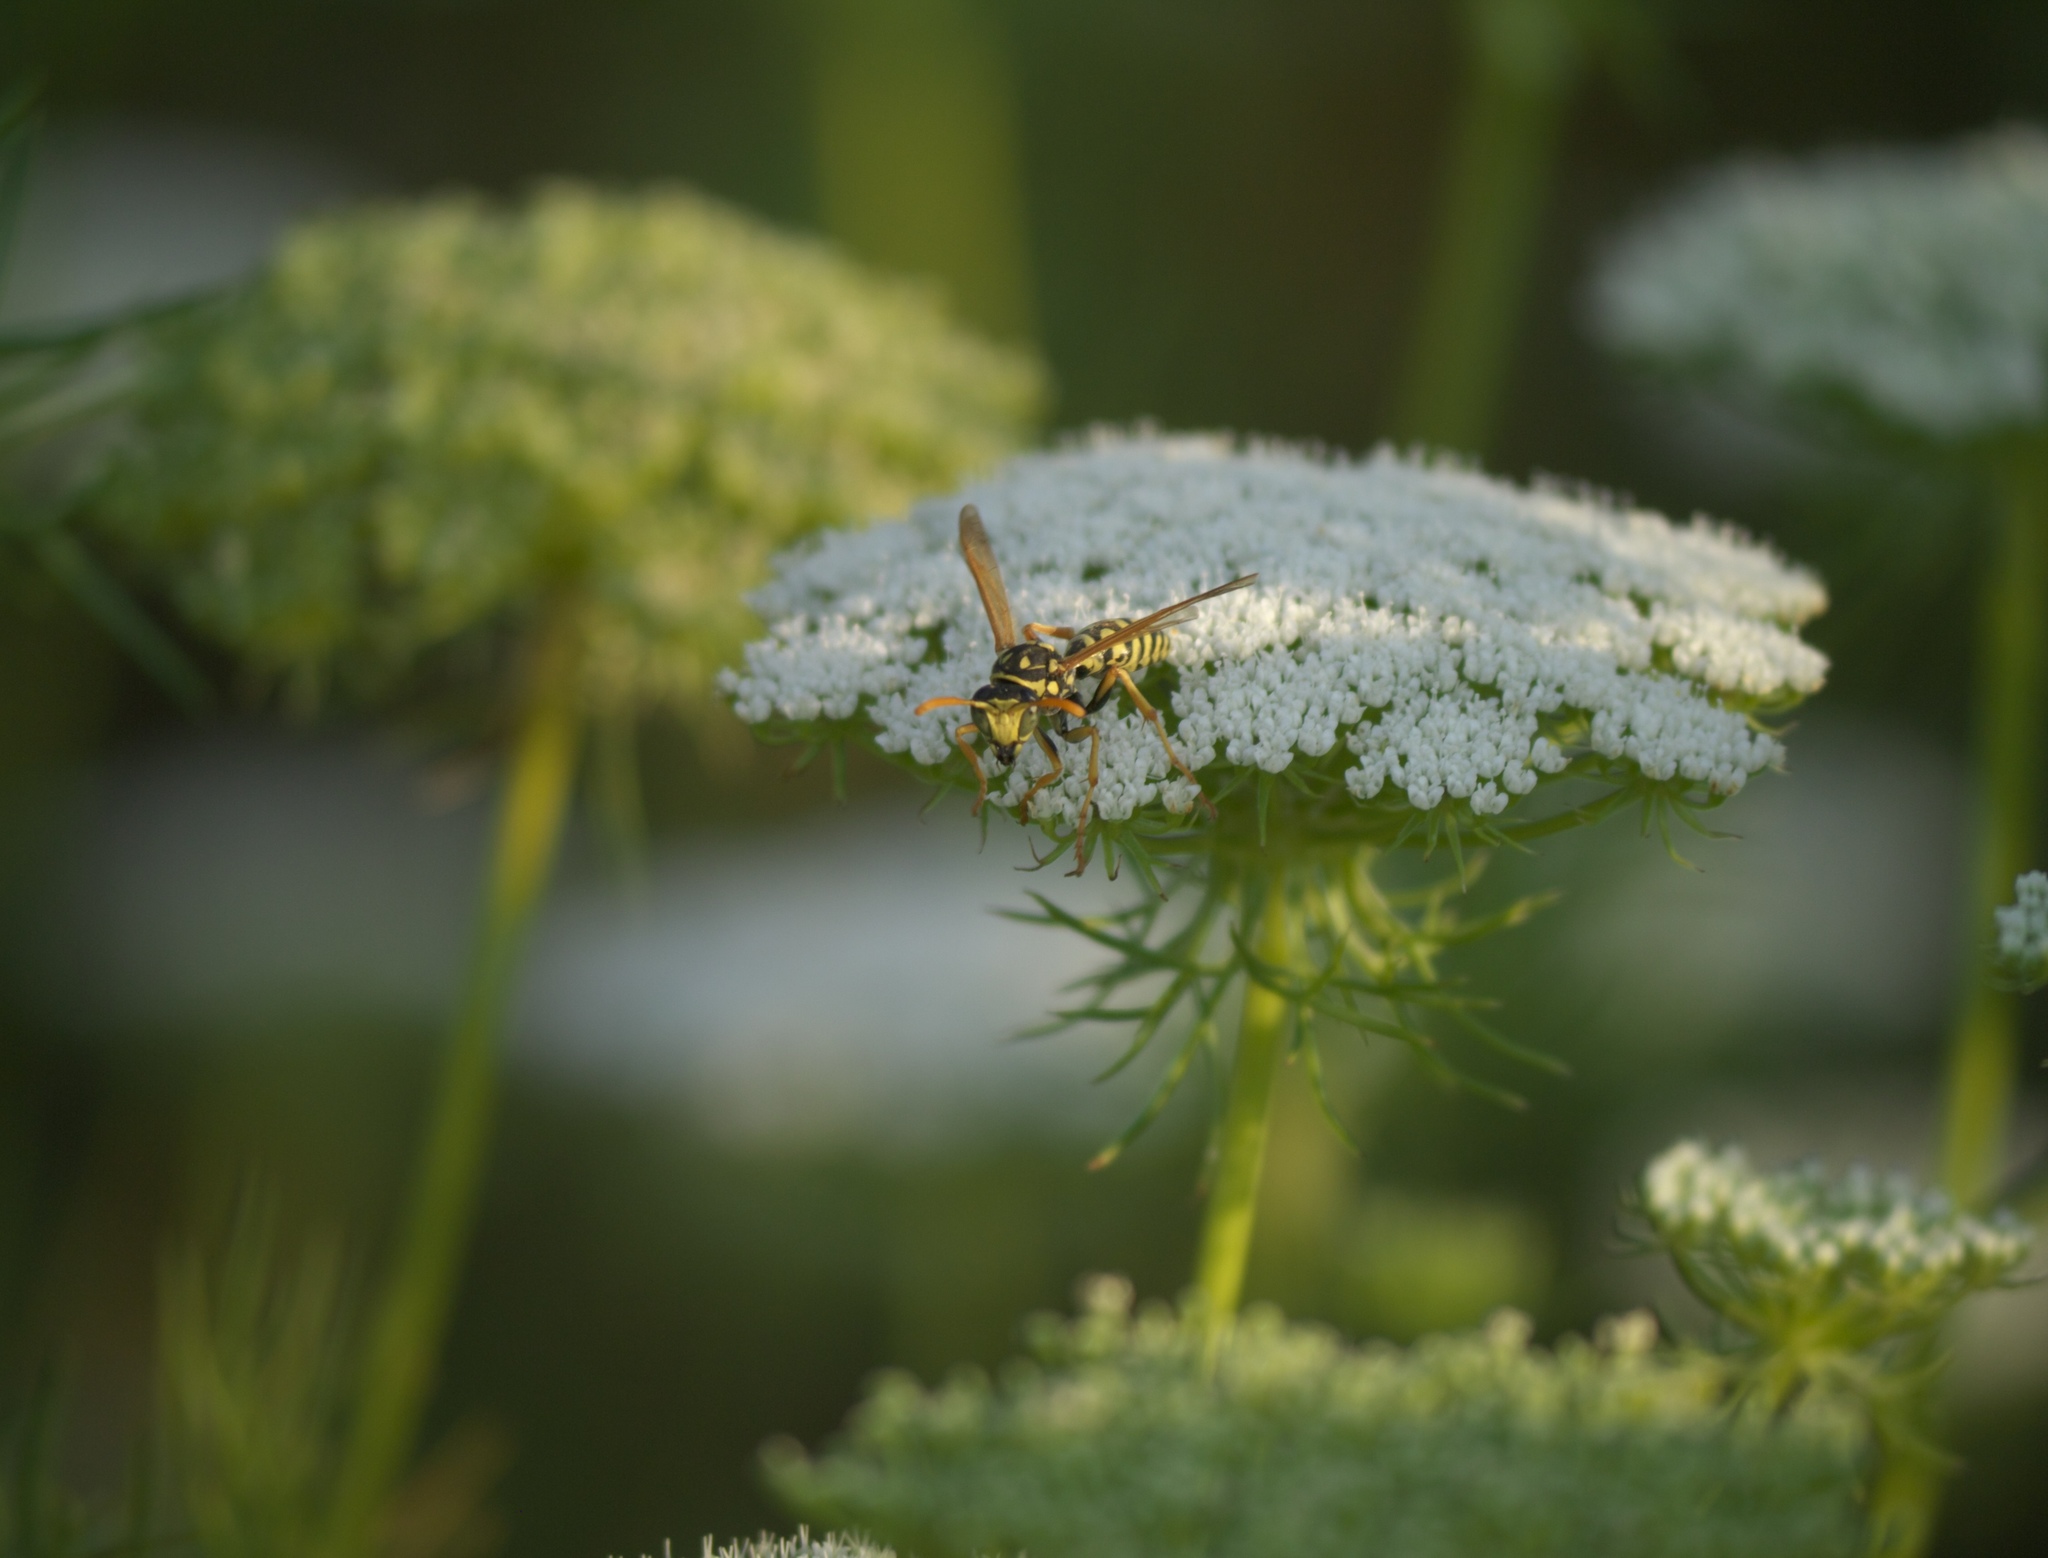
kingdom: Plantae
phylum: Tracheophyta
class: Magnoliopsida
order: Apiales
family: Apiaceae
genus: Visnaga
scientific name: Visnaga daucoides
